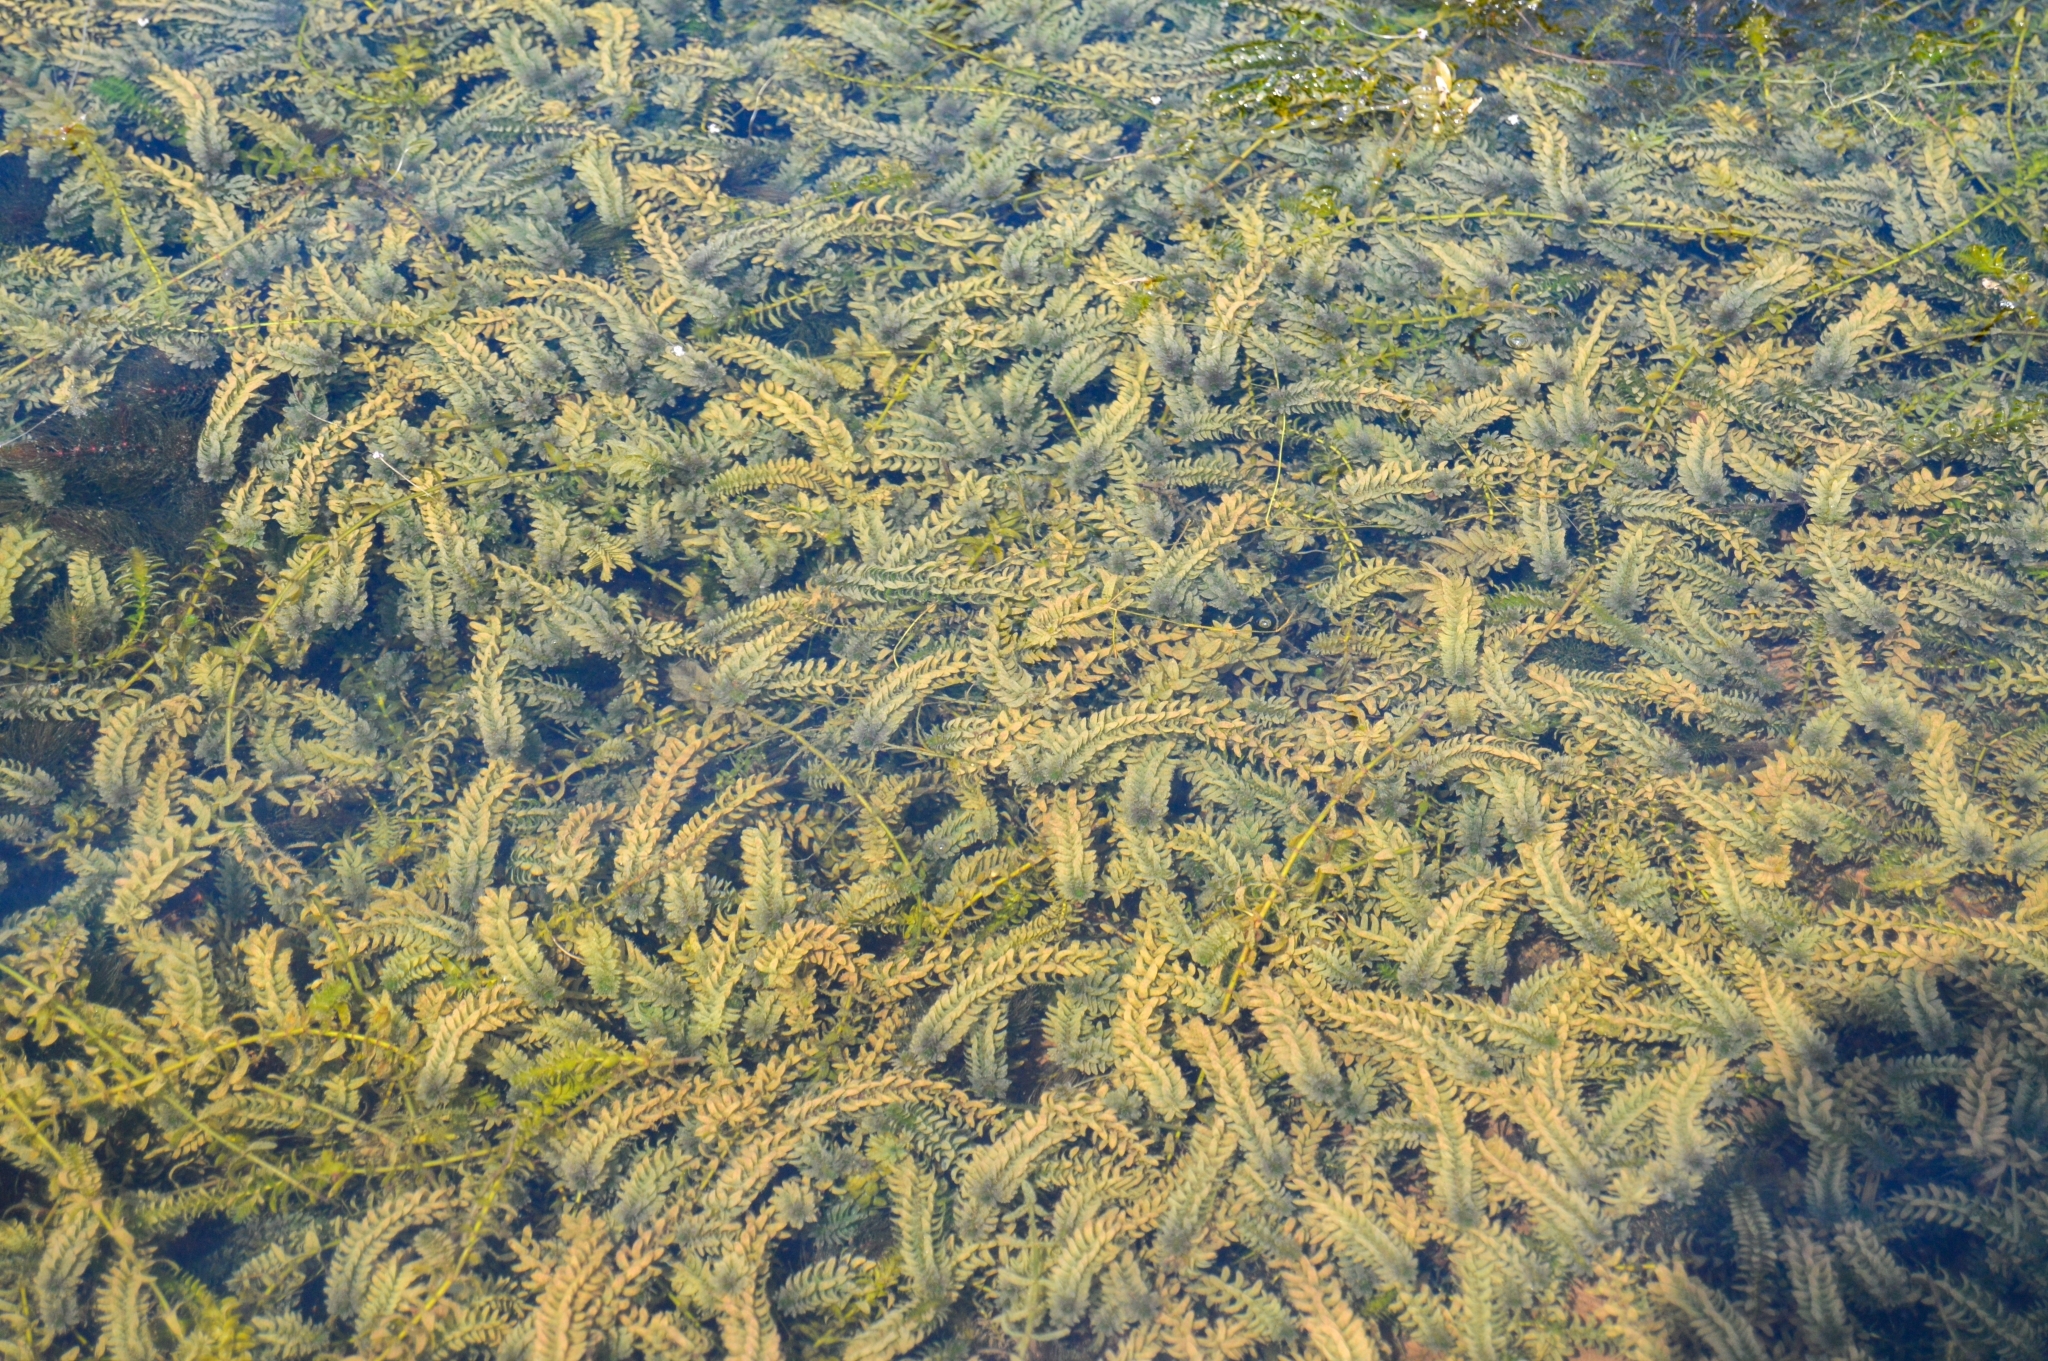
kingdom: Plantae
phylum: Tracheophyta
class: Liliopsida
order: Alismatales
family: Hydrocharitaceae
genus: Elodea
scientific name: Elodea canadensis
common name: Canadian waterweed
